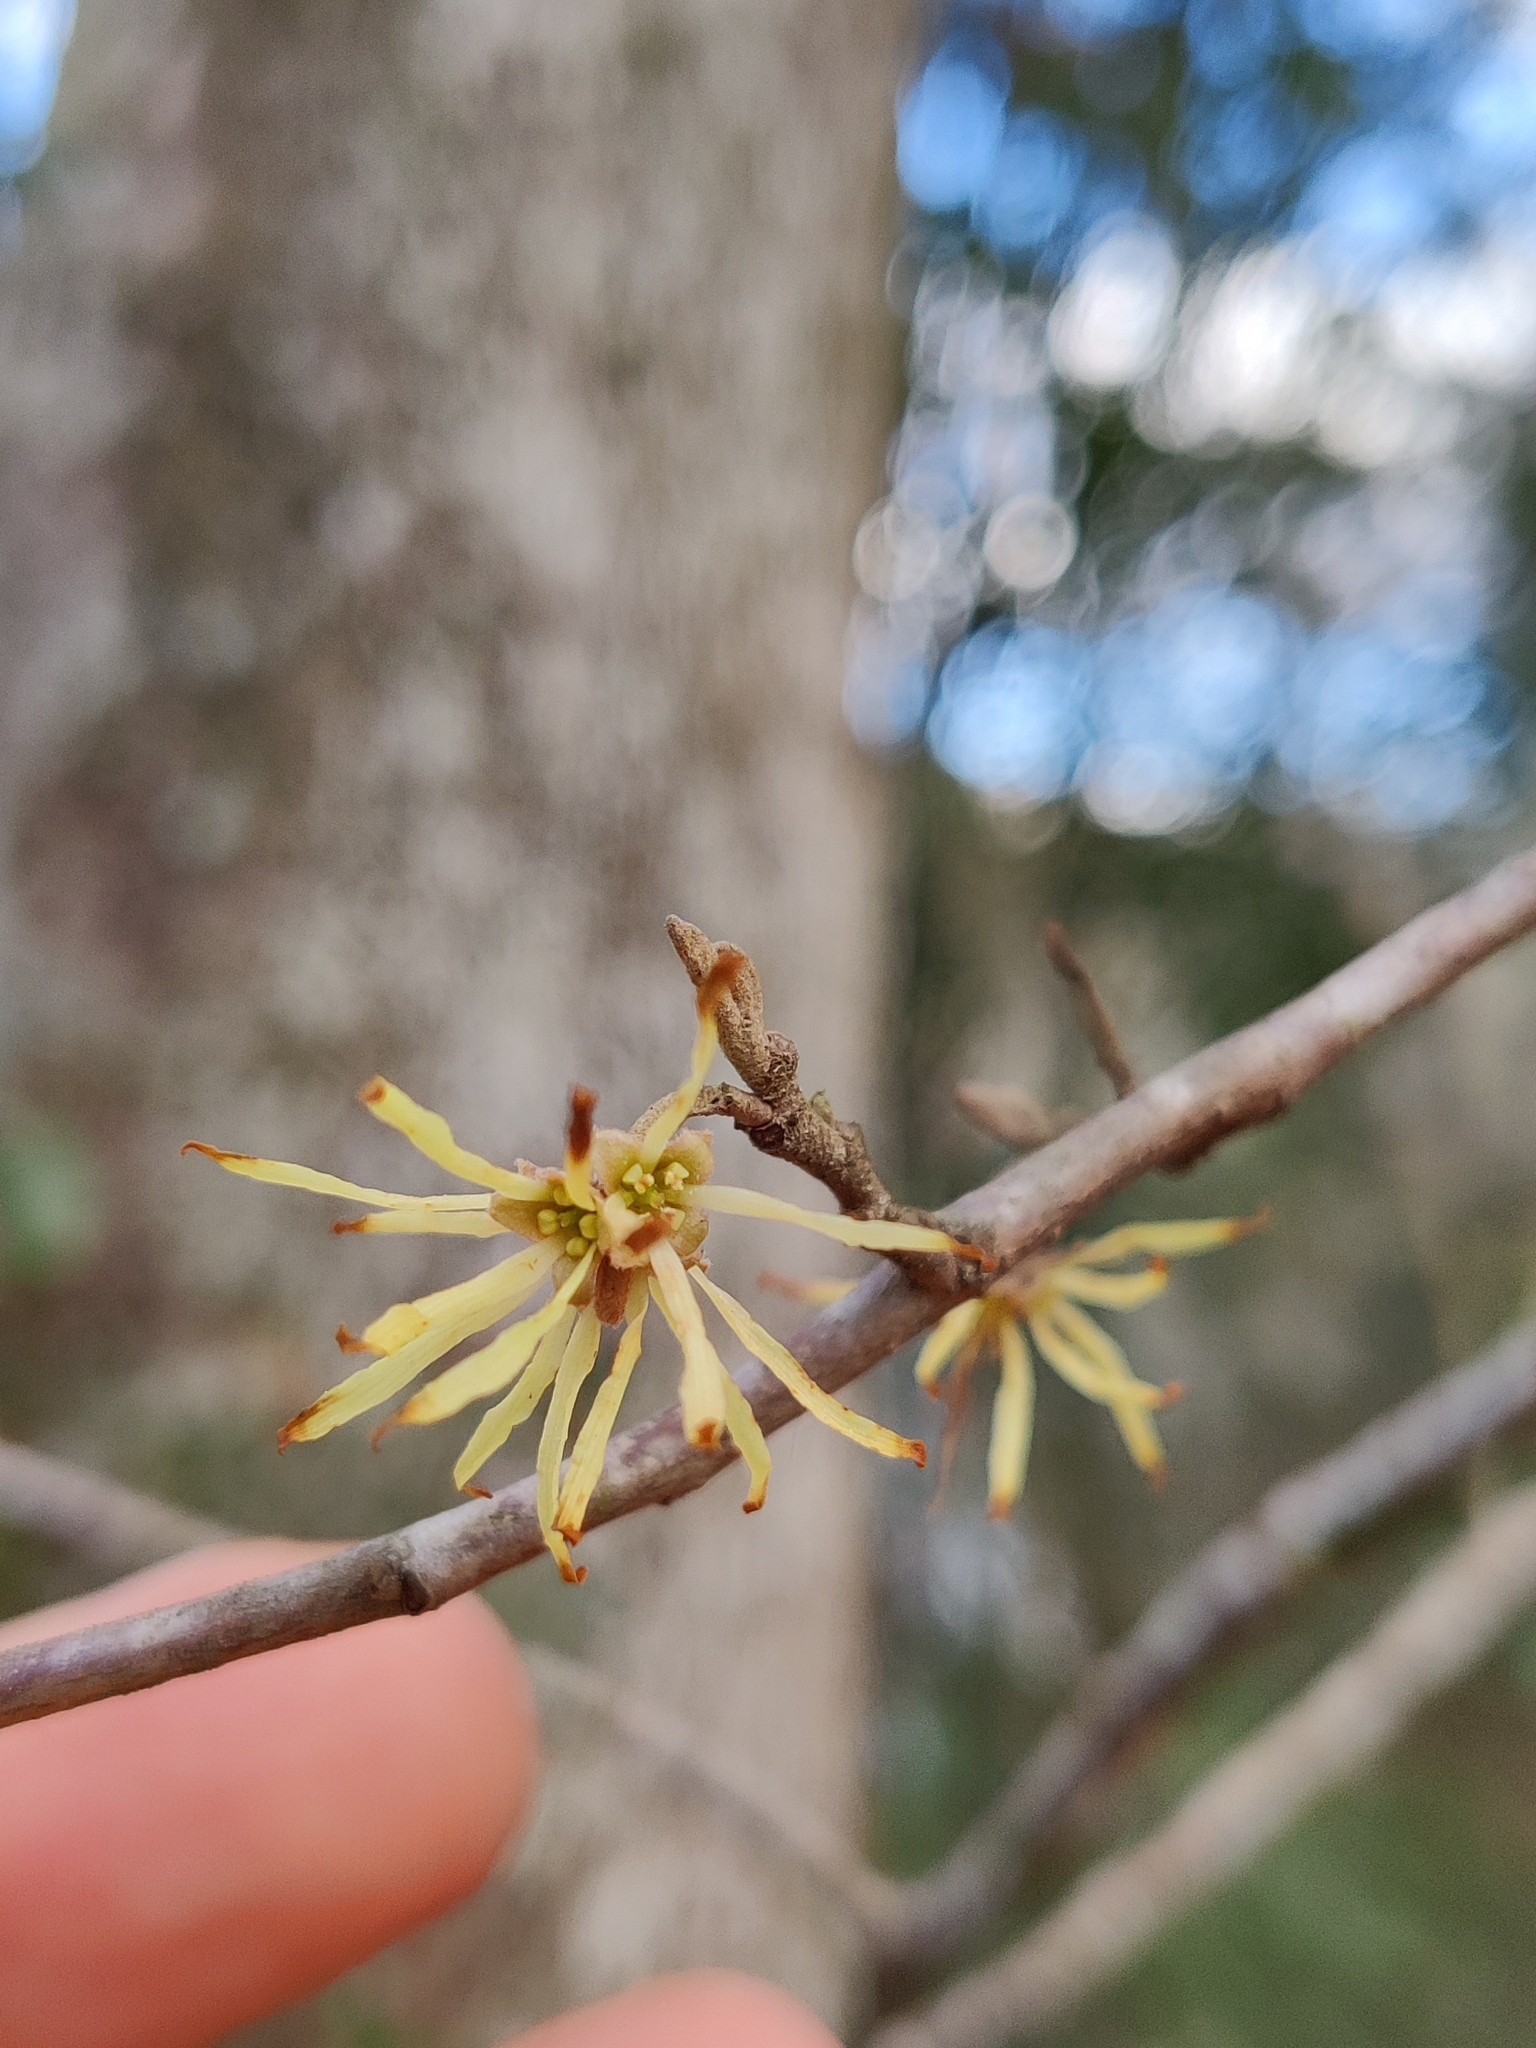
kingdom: Plantae
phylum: Tracheophyta
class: Magnoliopsida
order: Saxifragales
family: Hamamelidaceae
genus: Hamamelis
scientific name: Hamamelis virginiana
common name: Witch-hazel
